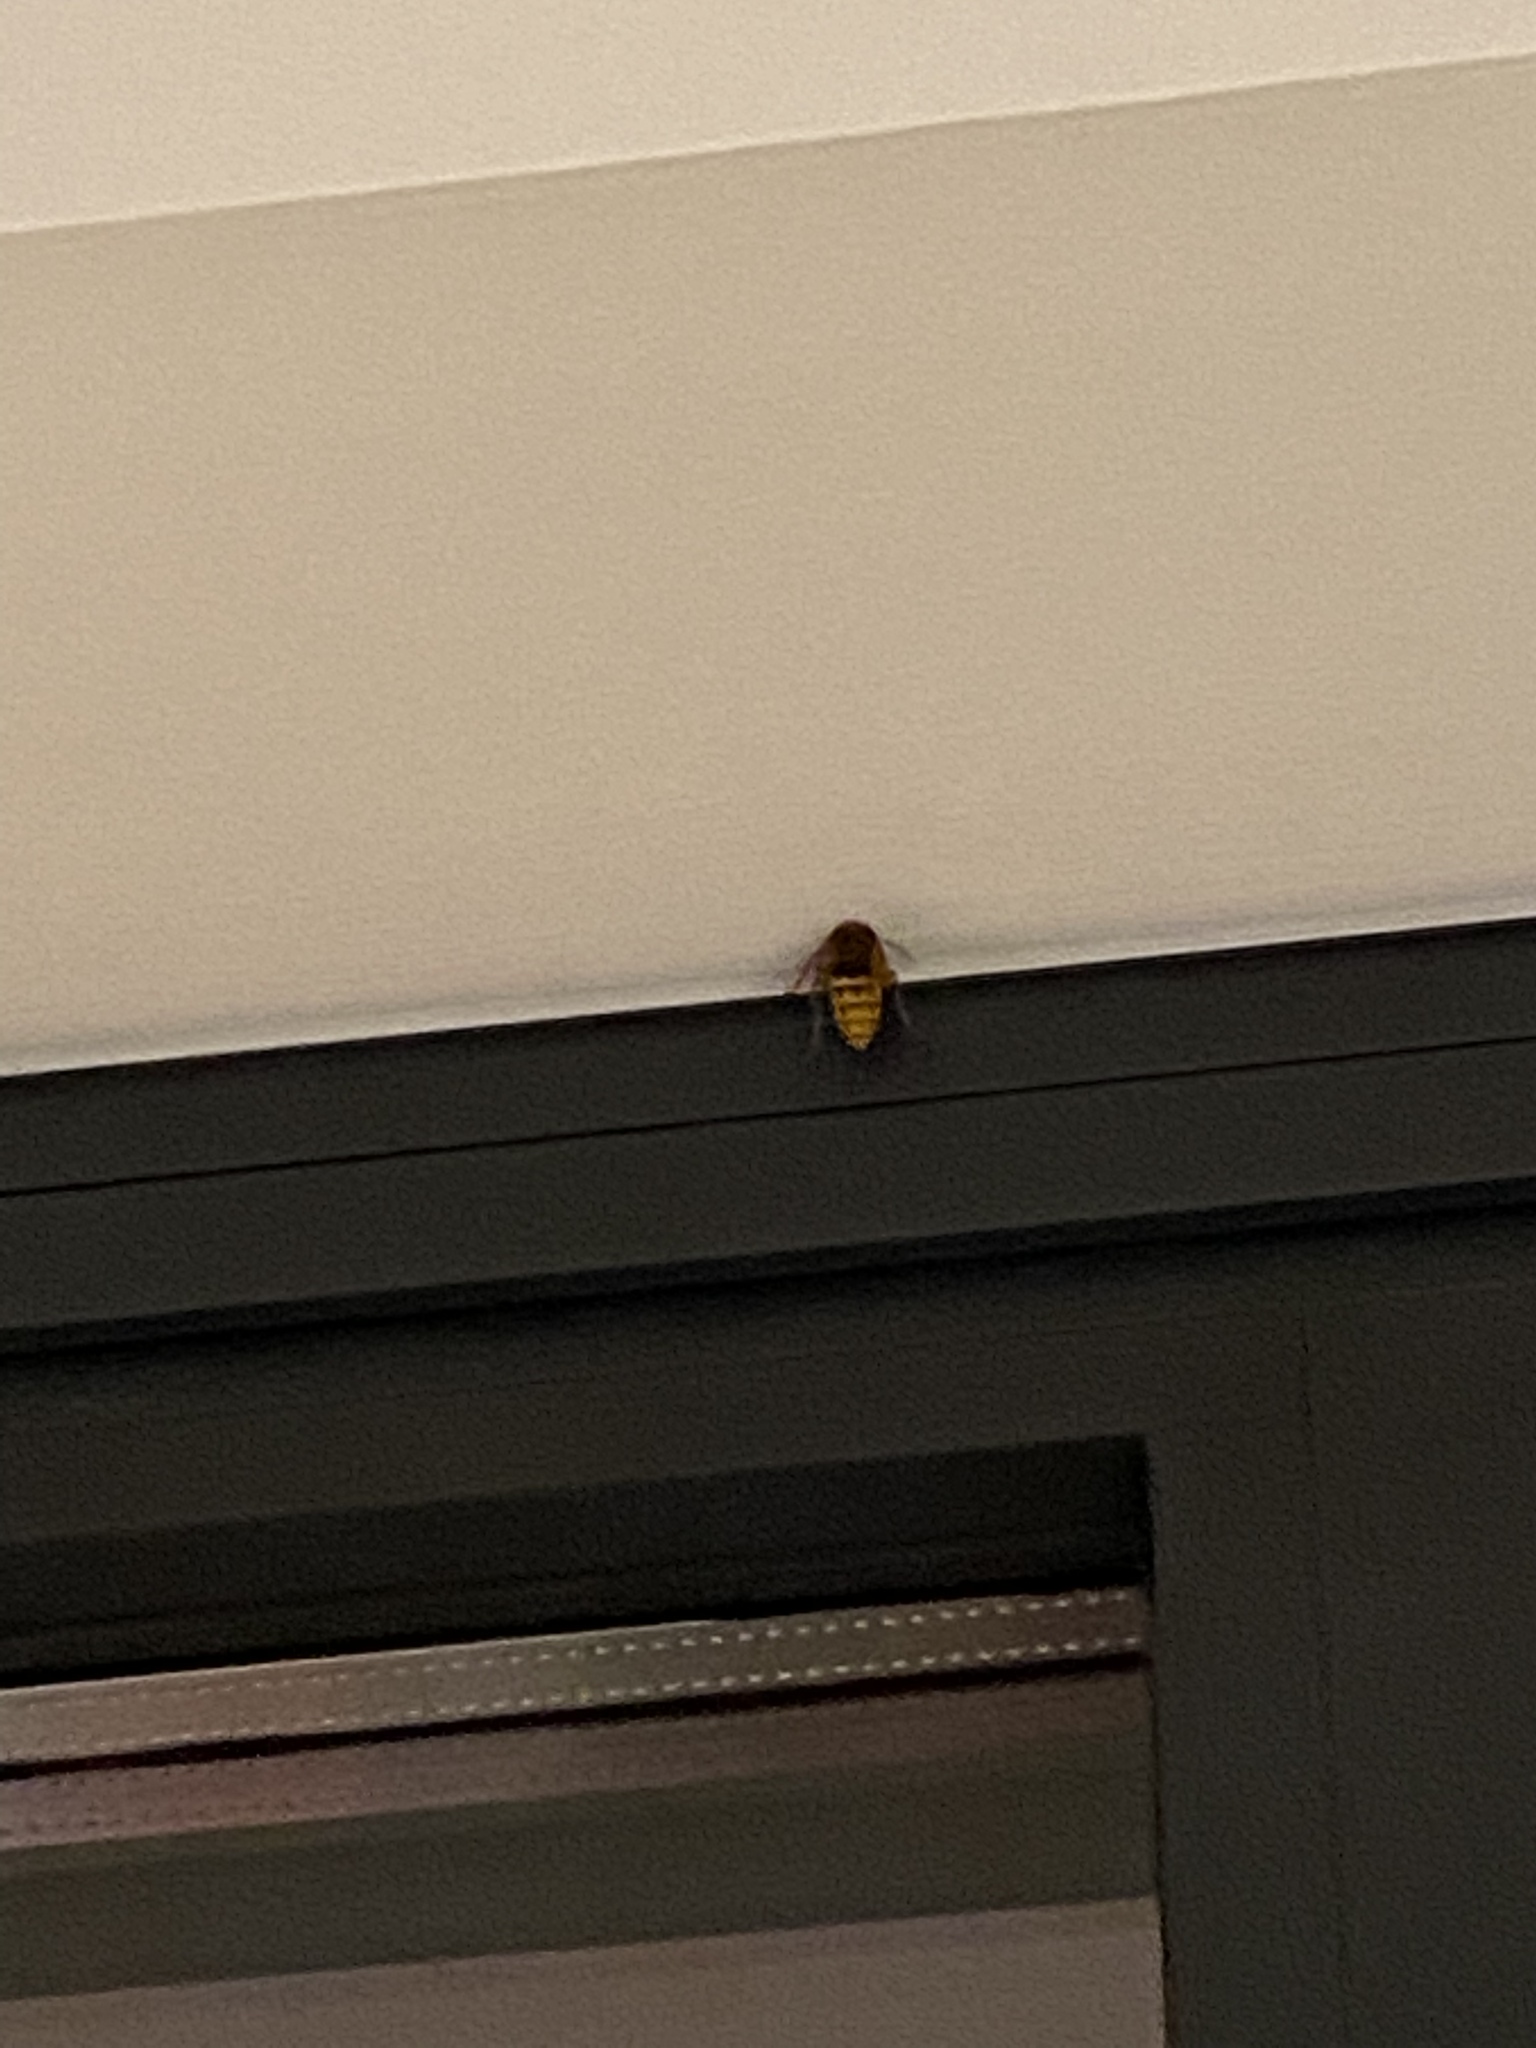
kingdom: Animalia
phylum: Arthropoda
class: Insecta
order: Hymenoptera
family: Vespidae
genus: Vespa
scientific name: Vespa crabro
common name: Hornet
